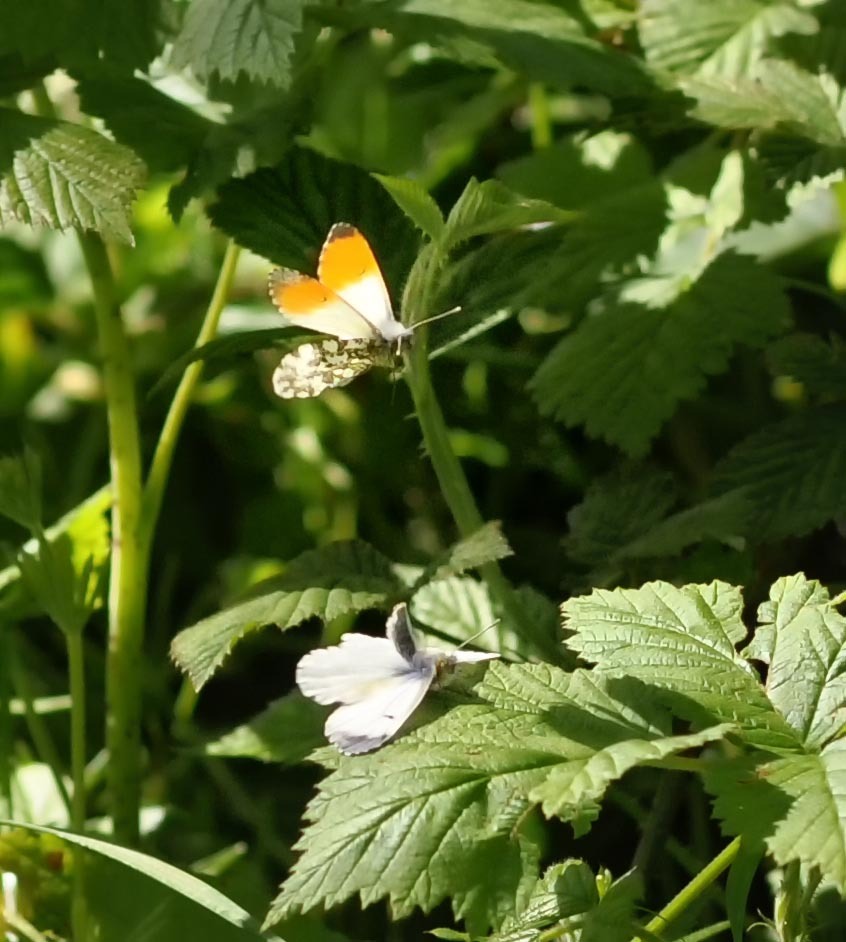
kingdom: Animalia
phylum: Arthropoda
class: Insecta
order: Lepidoptera
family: Pieridae
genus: Anthocharis
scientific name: Anthocharis cardamines
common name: Orange-tip
